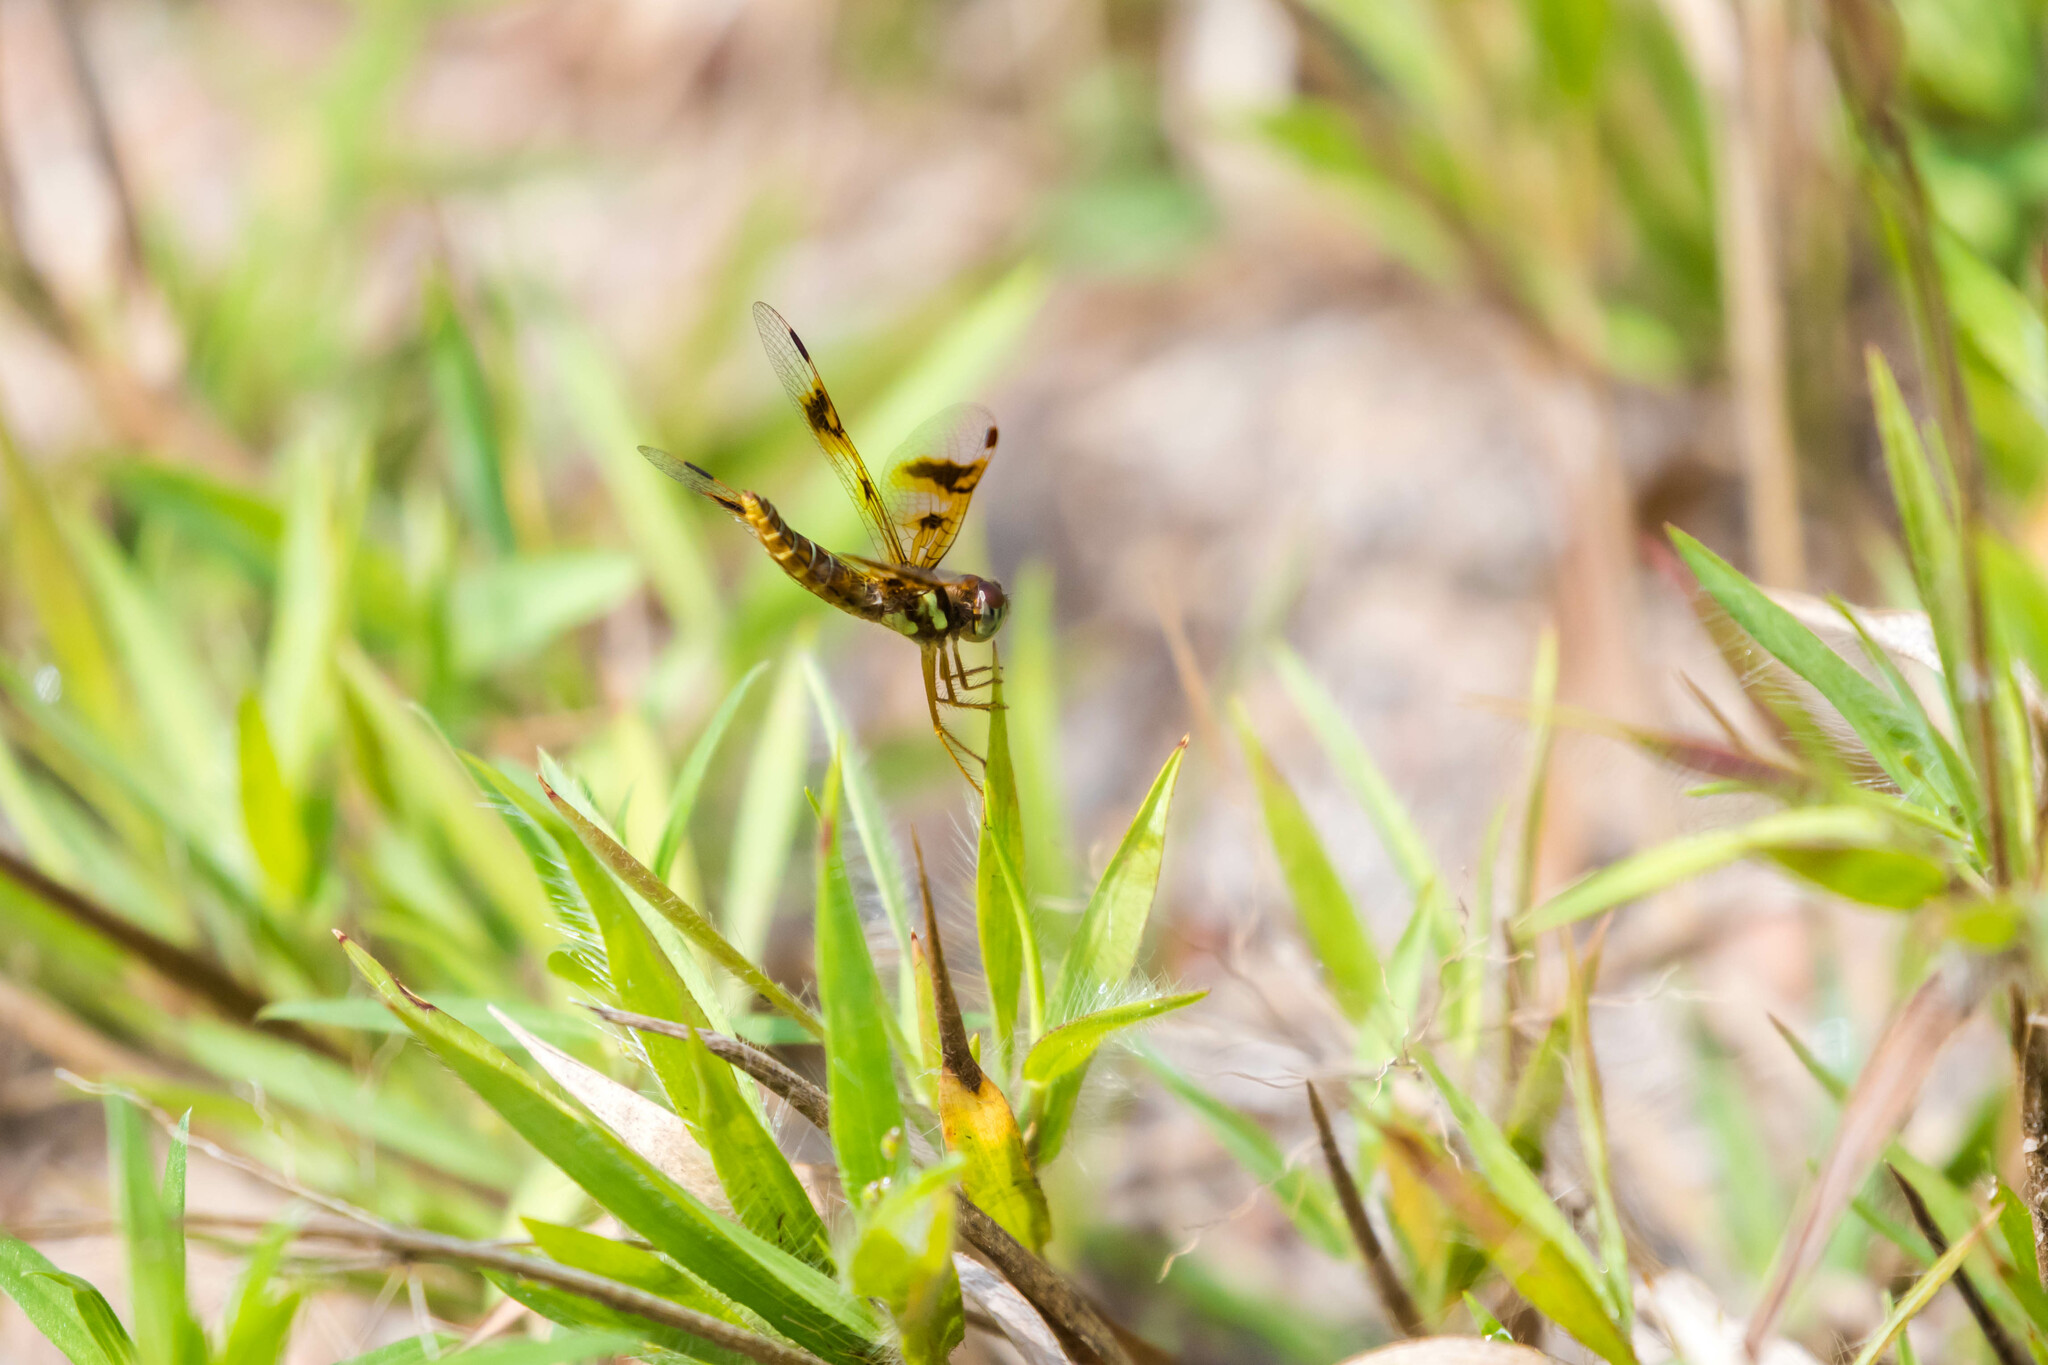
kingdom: Animalia
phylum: Arthropoda
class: Insecta
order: Odonata
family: Libellulidae
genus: Perithemis
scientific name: Perithemis tenera
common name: Eastern amberwing
